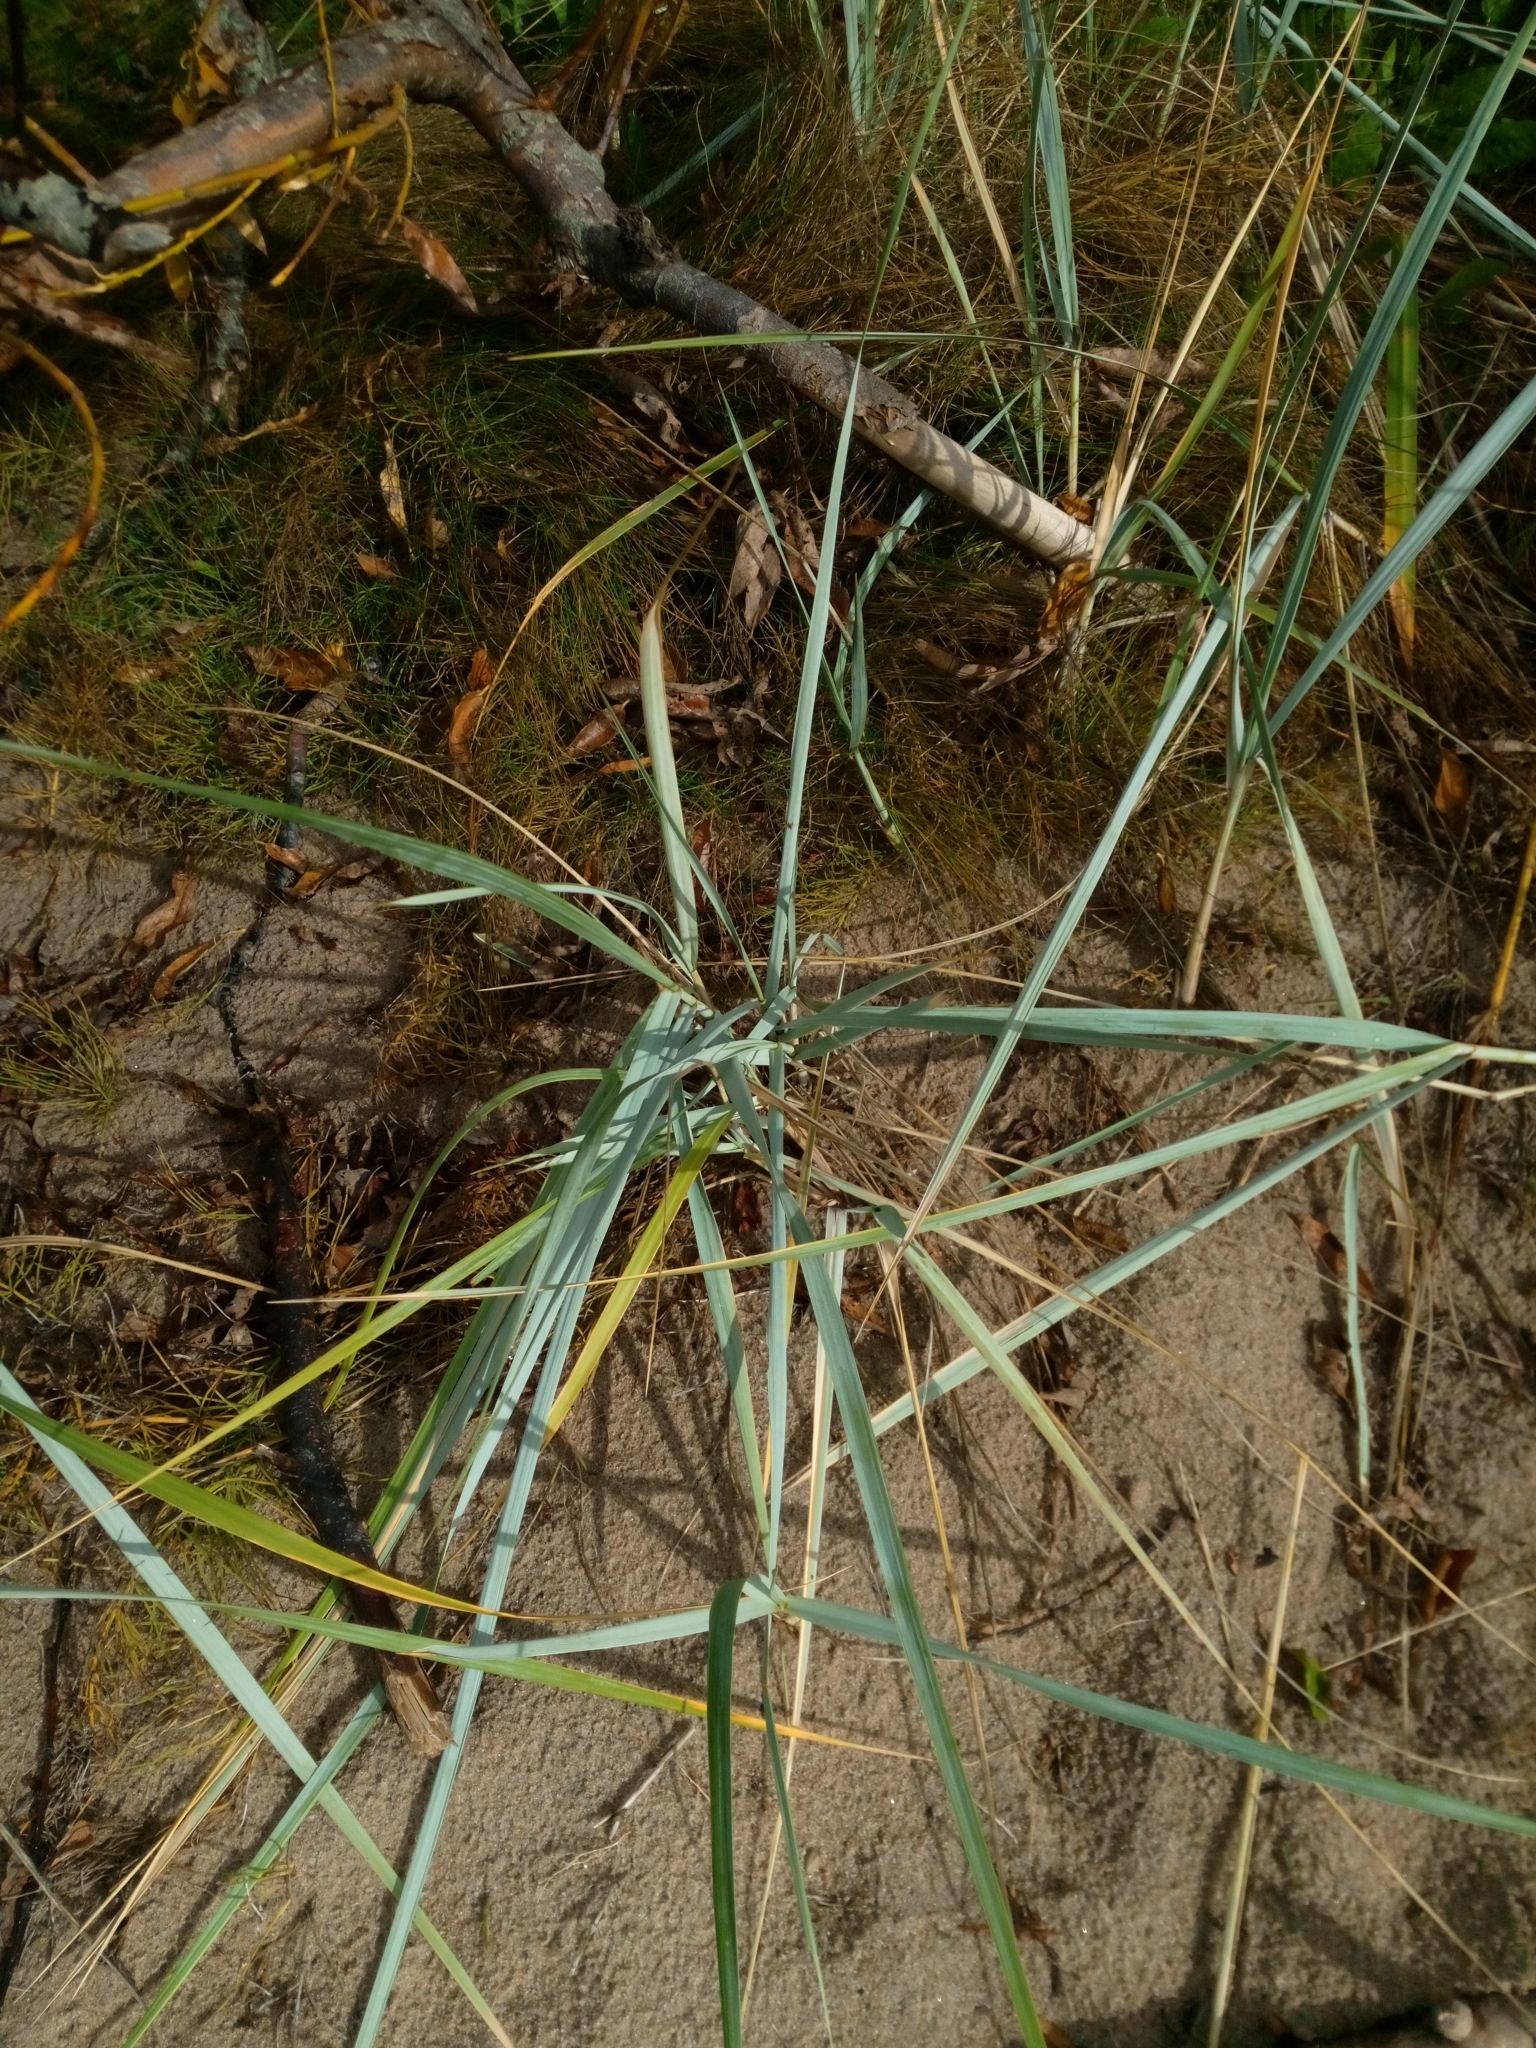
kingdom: Plantae
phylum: Tracheophyta
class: Liliopsida
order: Poales
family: Poaceae
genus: Leymus
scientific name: Leymus arenarius
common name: Lyme-grass
